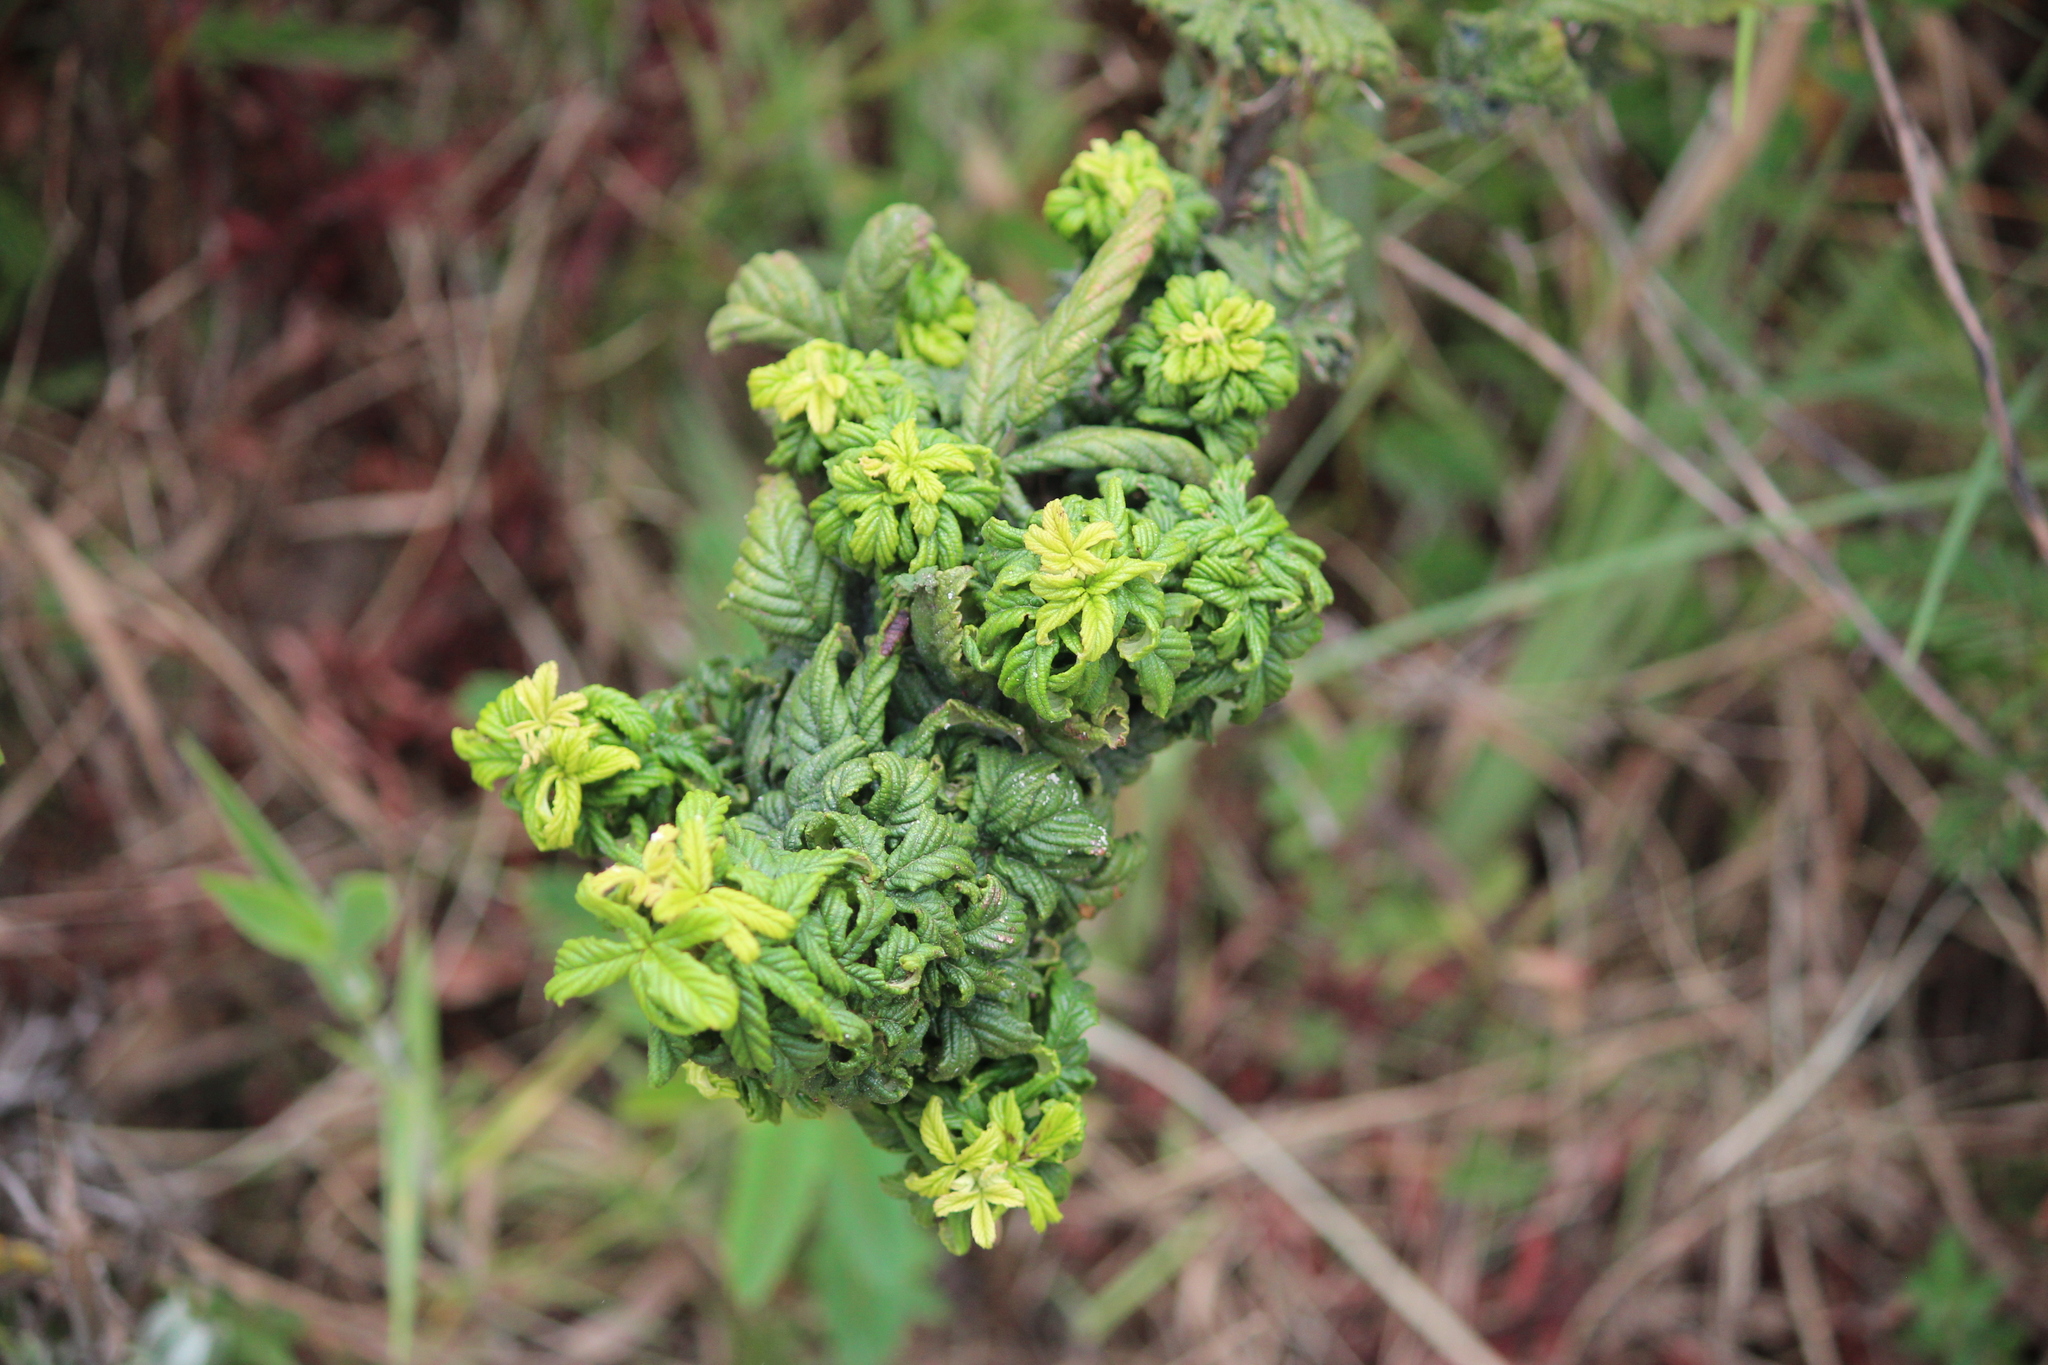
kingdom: Animalia
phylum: Arthropoda
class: Insecta
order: Hemiptera
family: Triozidae
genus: Phylloplecta
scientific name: Phylloplecta tripunctata
